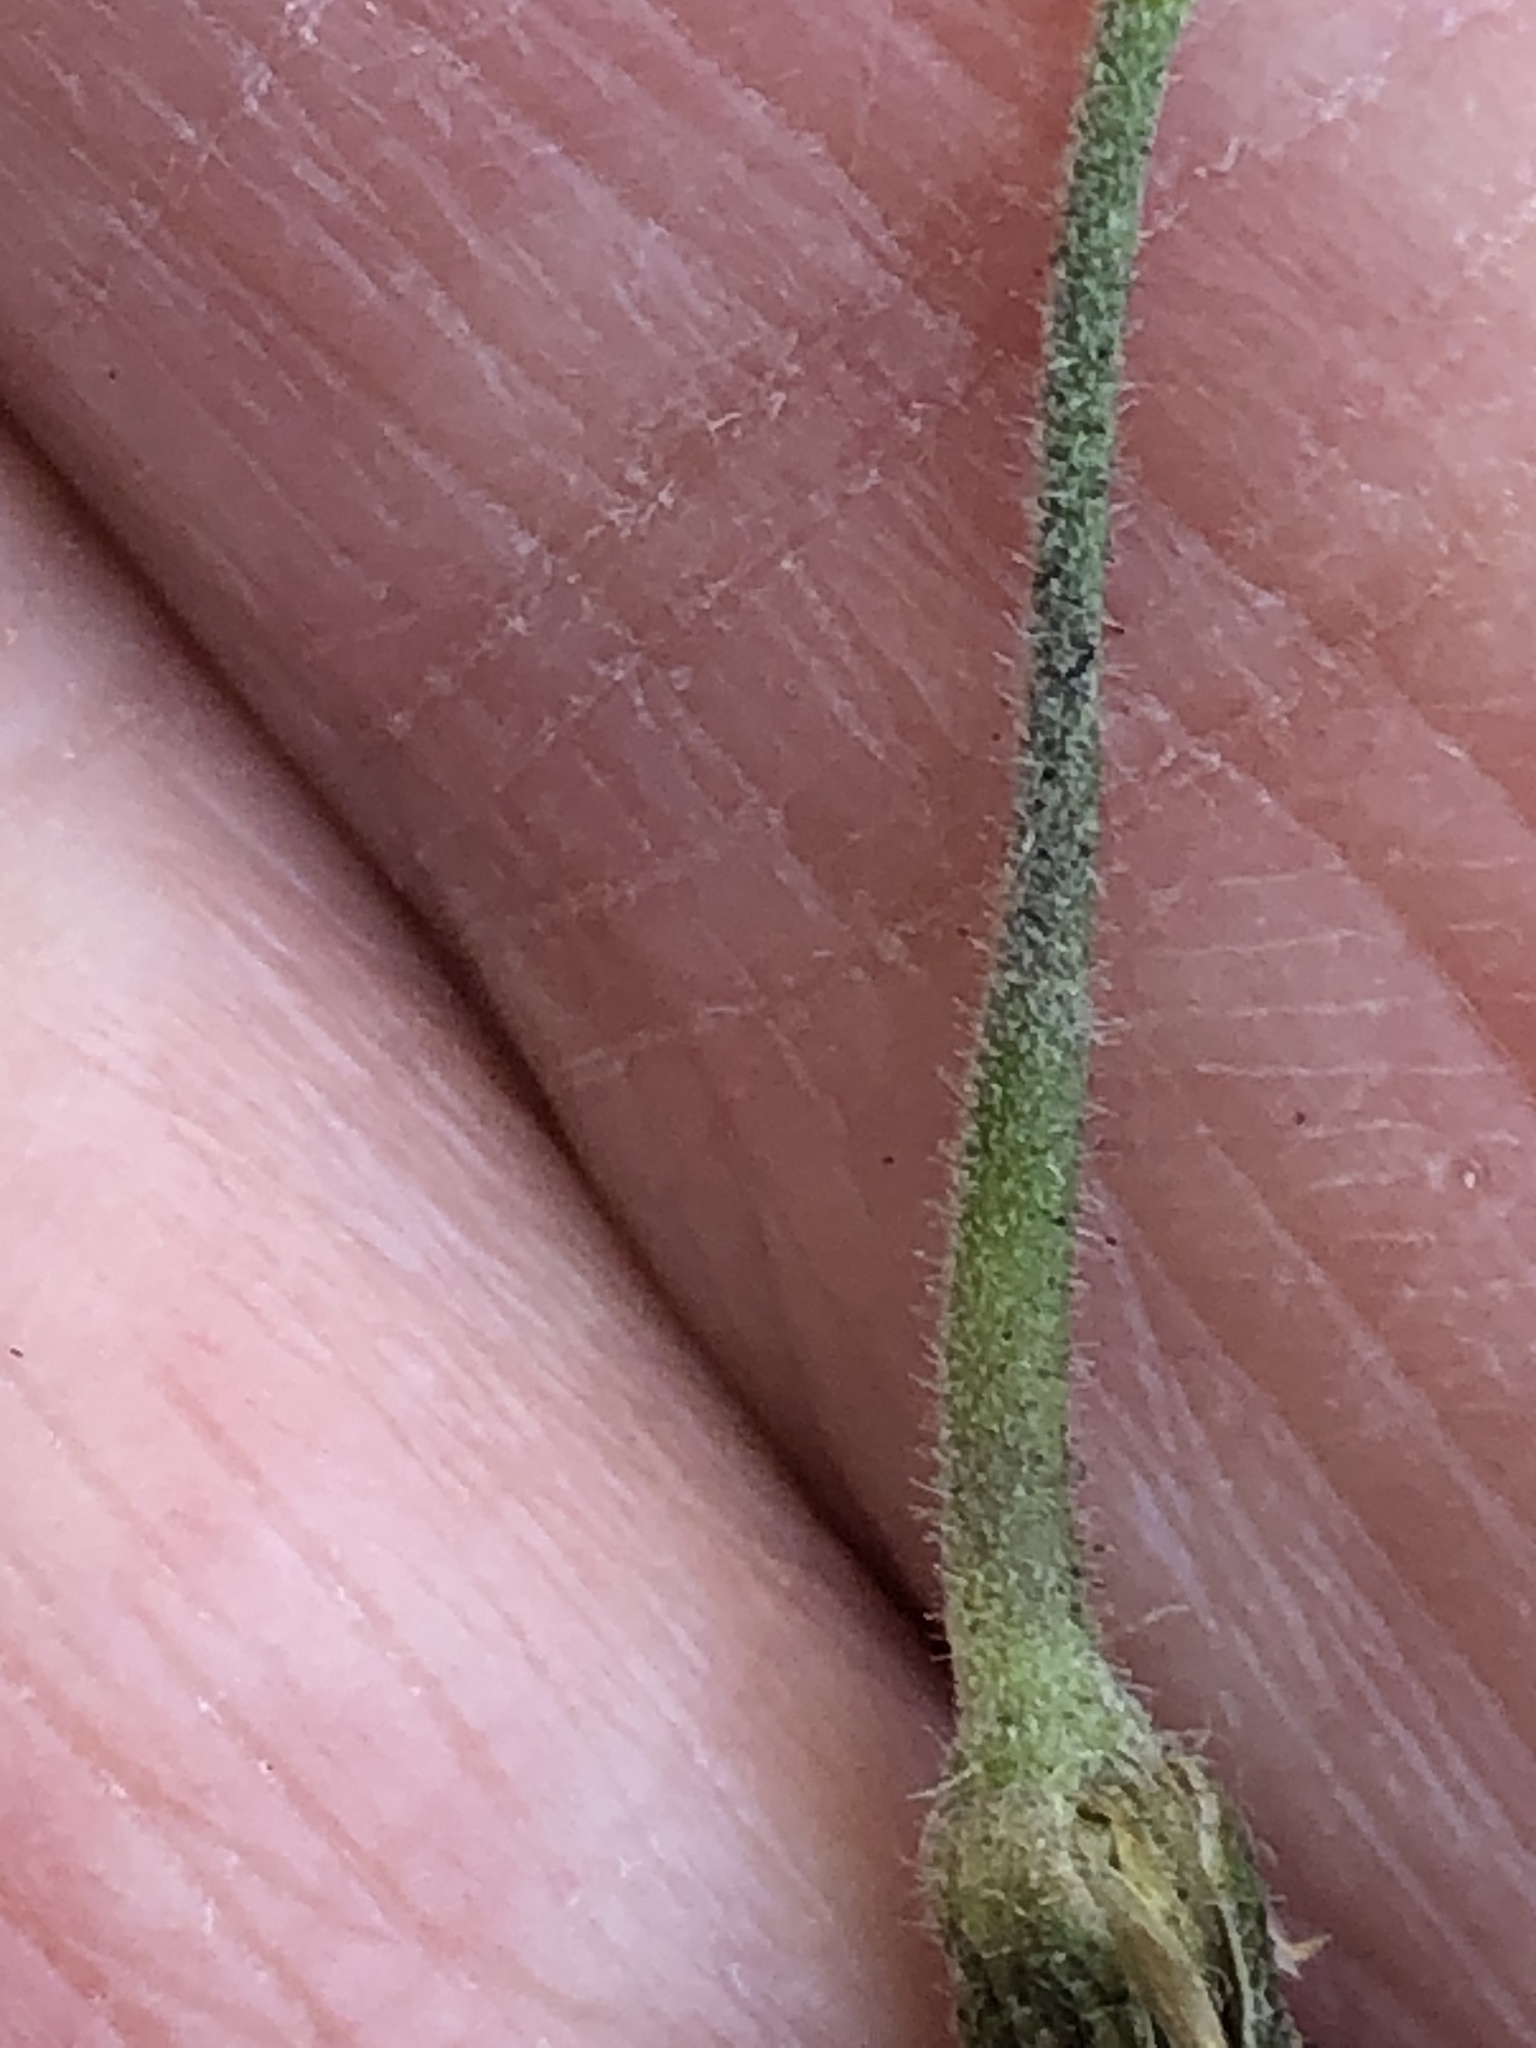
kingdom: Plantae
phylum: Tracheophyta
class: Magnoliopsida
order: Geraniales
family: Geraniaceae
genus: Erodium
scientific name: Erodium moschatum
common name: Musk stork's-bill
